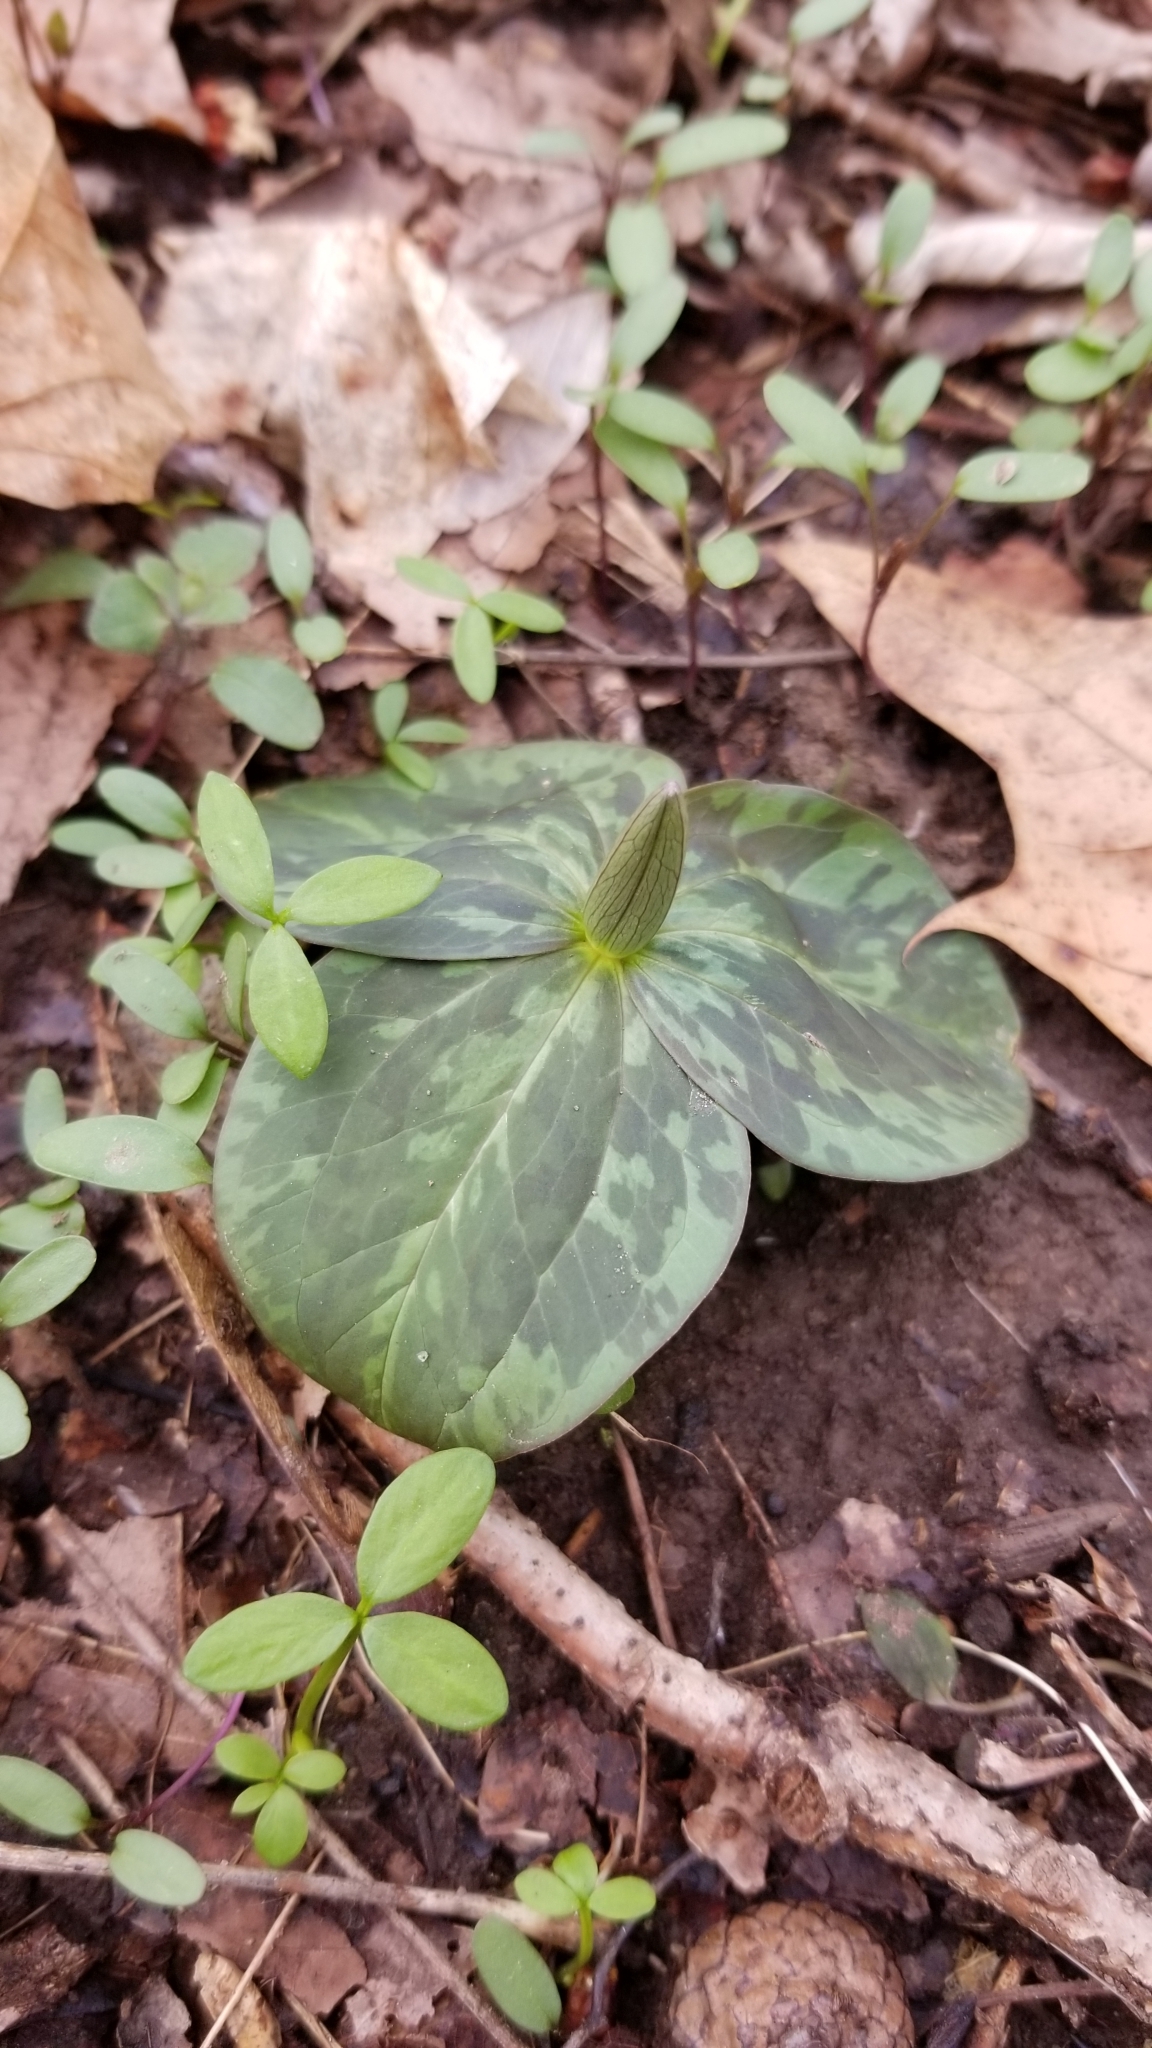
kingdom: Plantae
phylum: Tracheophyta
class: Liliopsida
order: Liliales
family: Melanthiaceae
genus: Trillium
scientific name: Trillium sessile
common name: Sessile trillium
